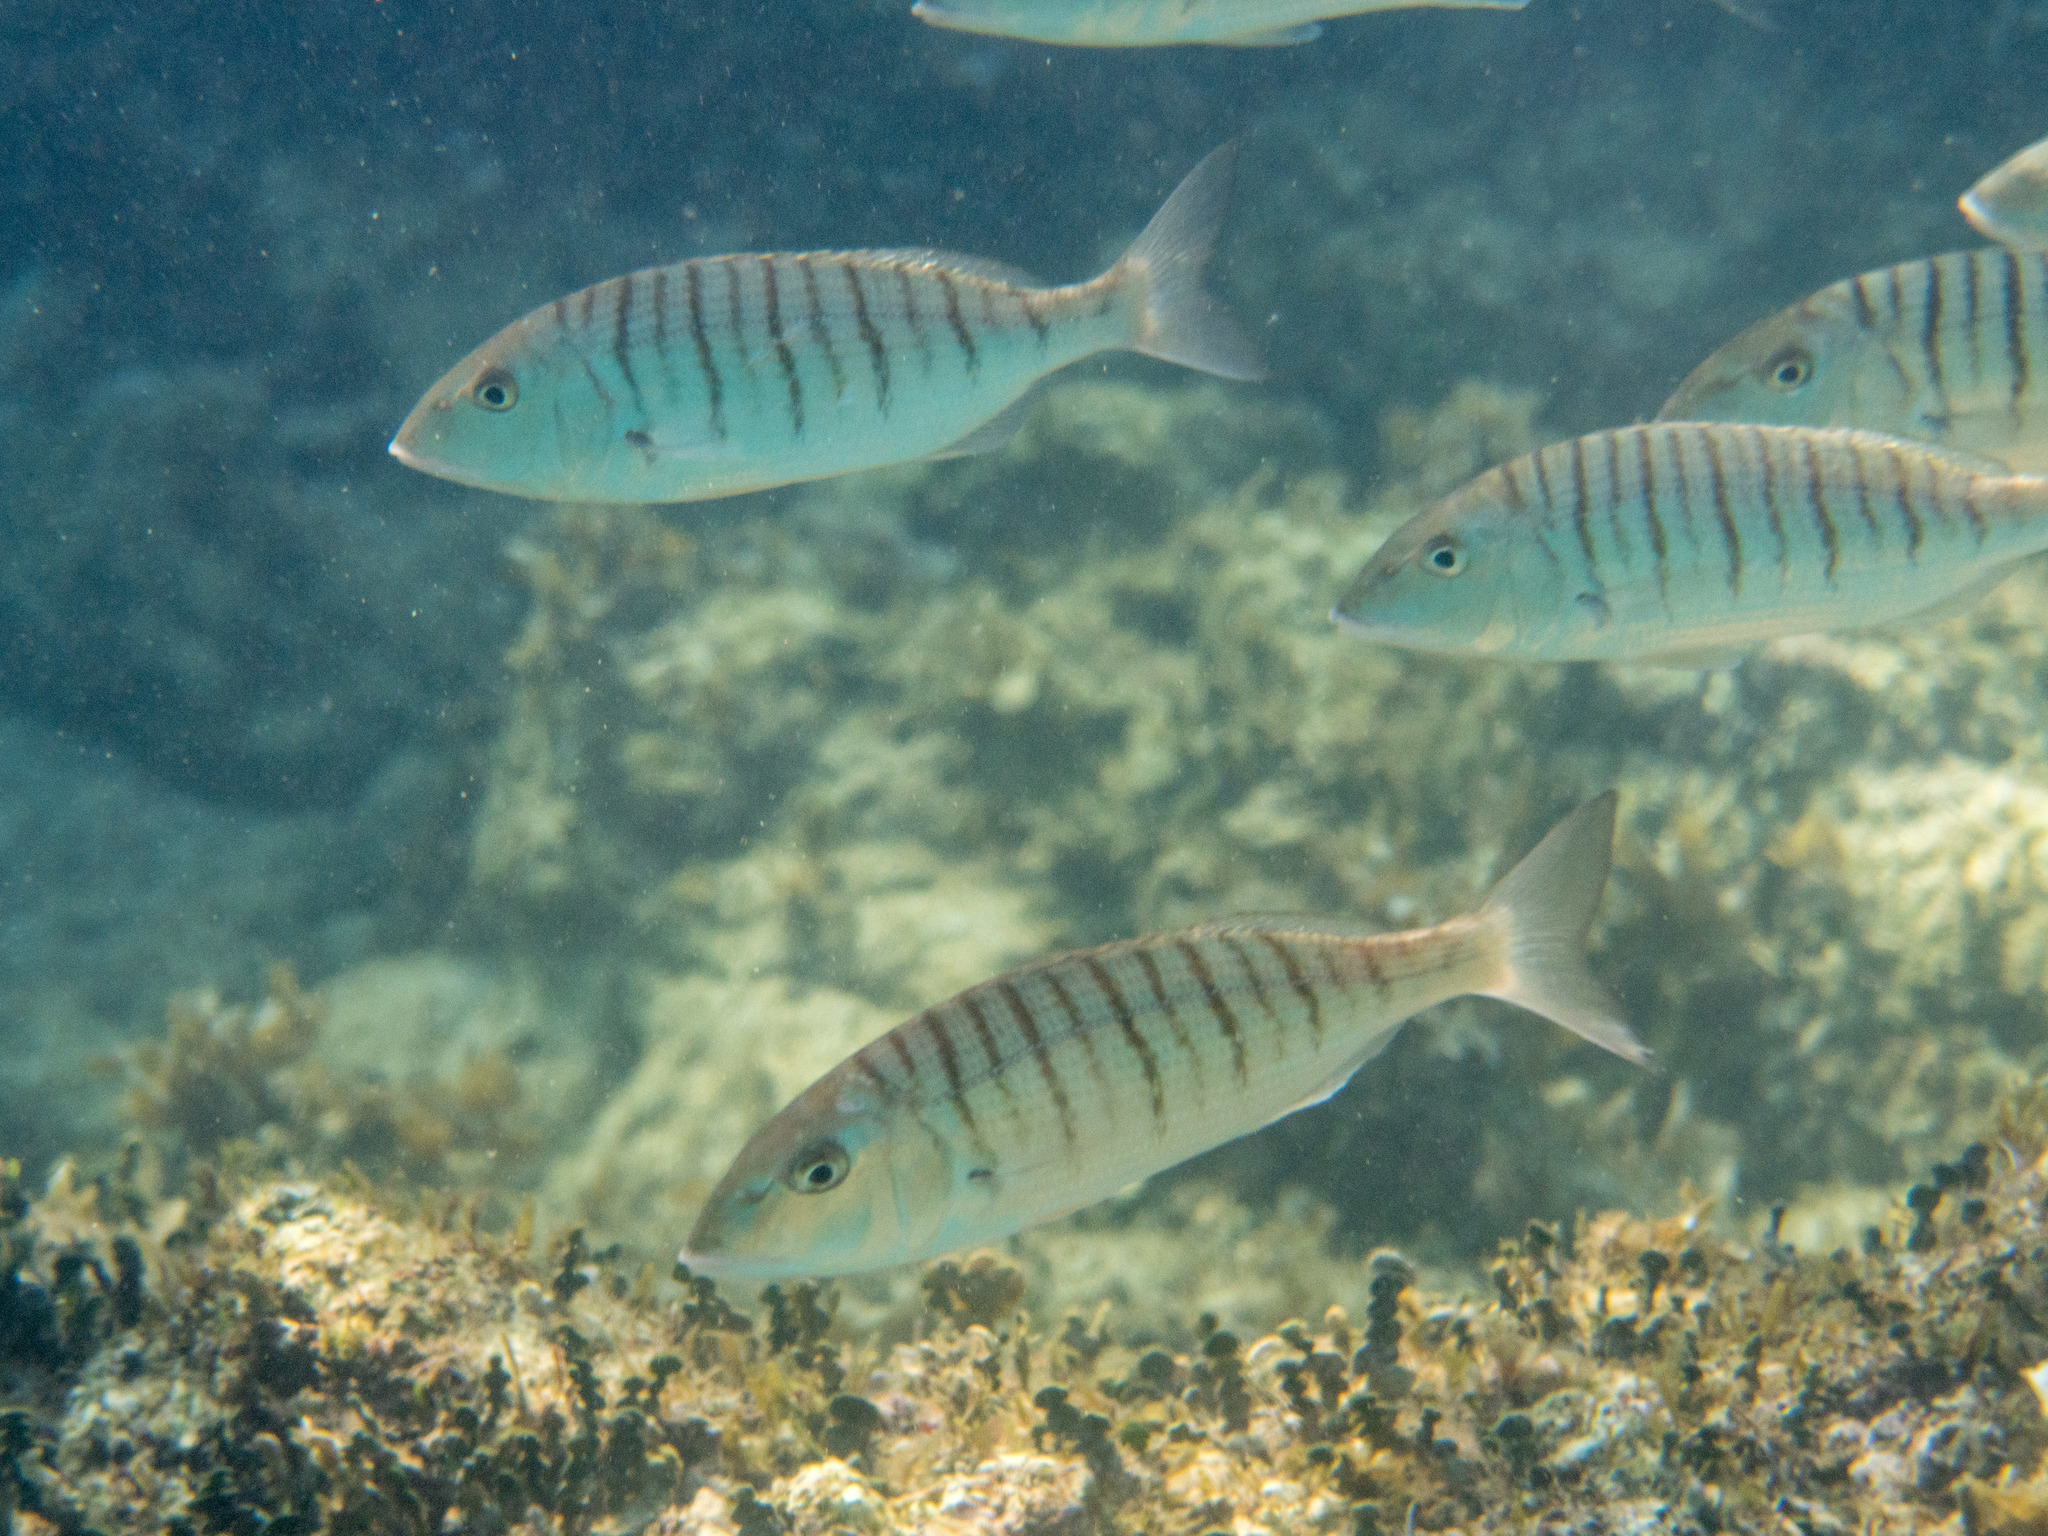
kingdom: Animalia
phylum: Chordata
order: Perciformes
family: Sparidae
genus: Lithognathus
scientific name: Lithognathus mormyrus
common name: Sand steenbras
